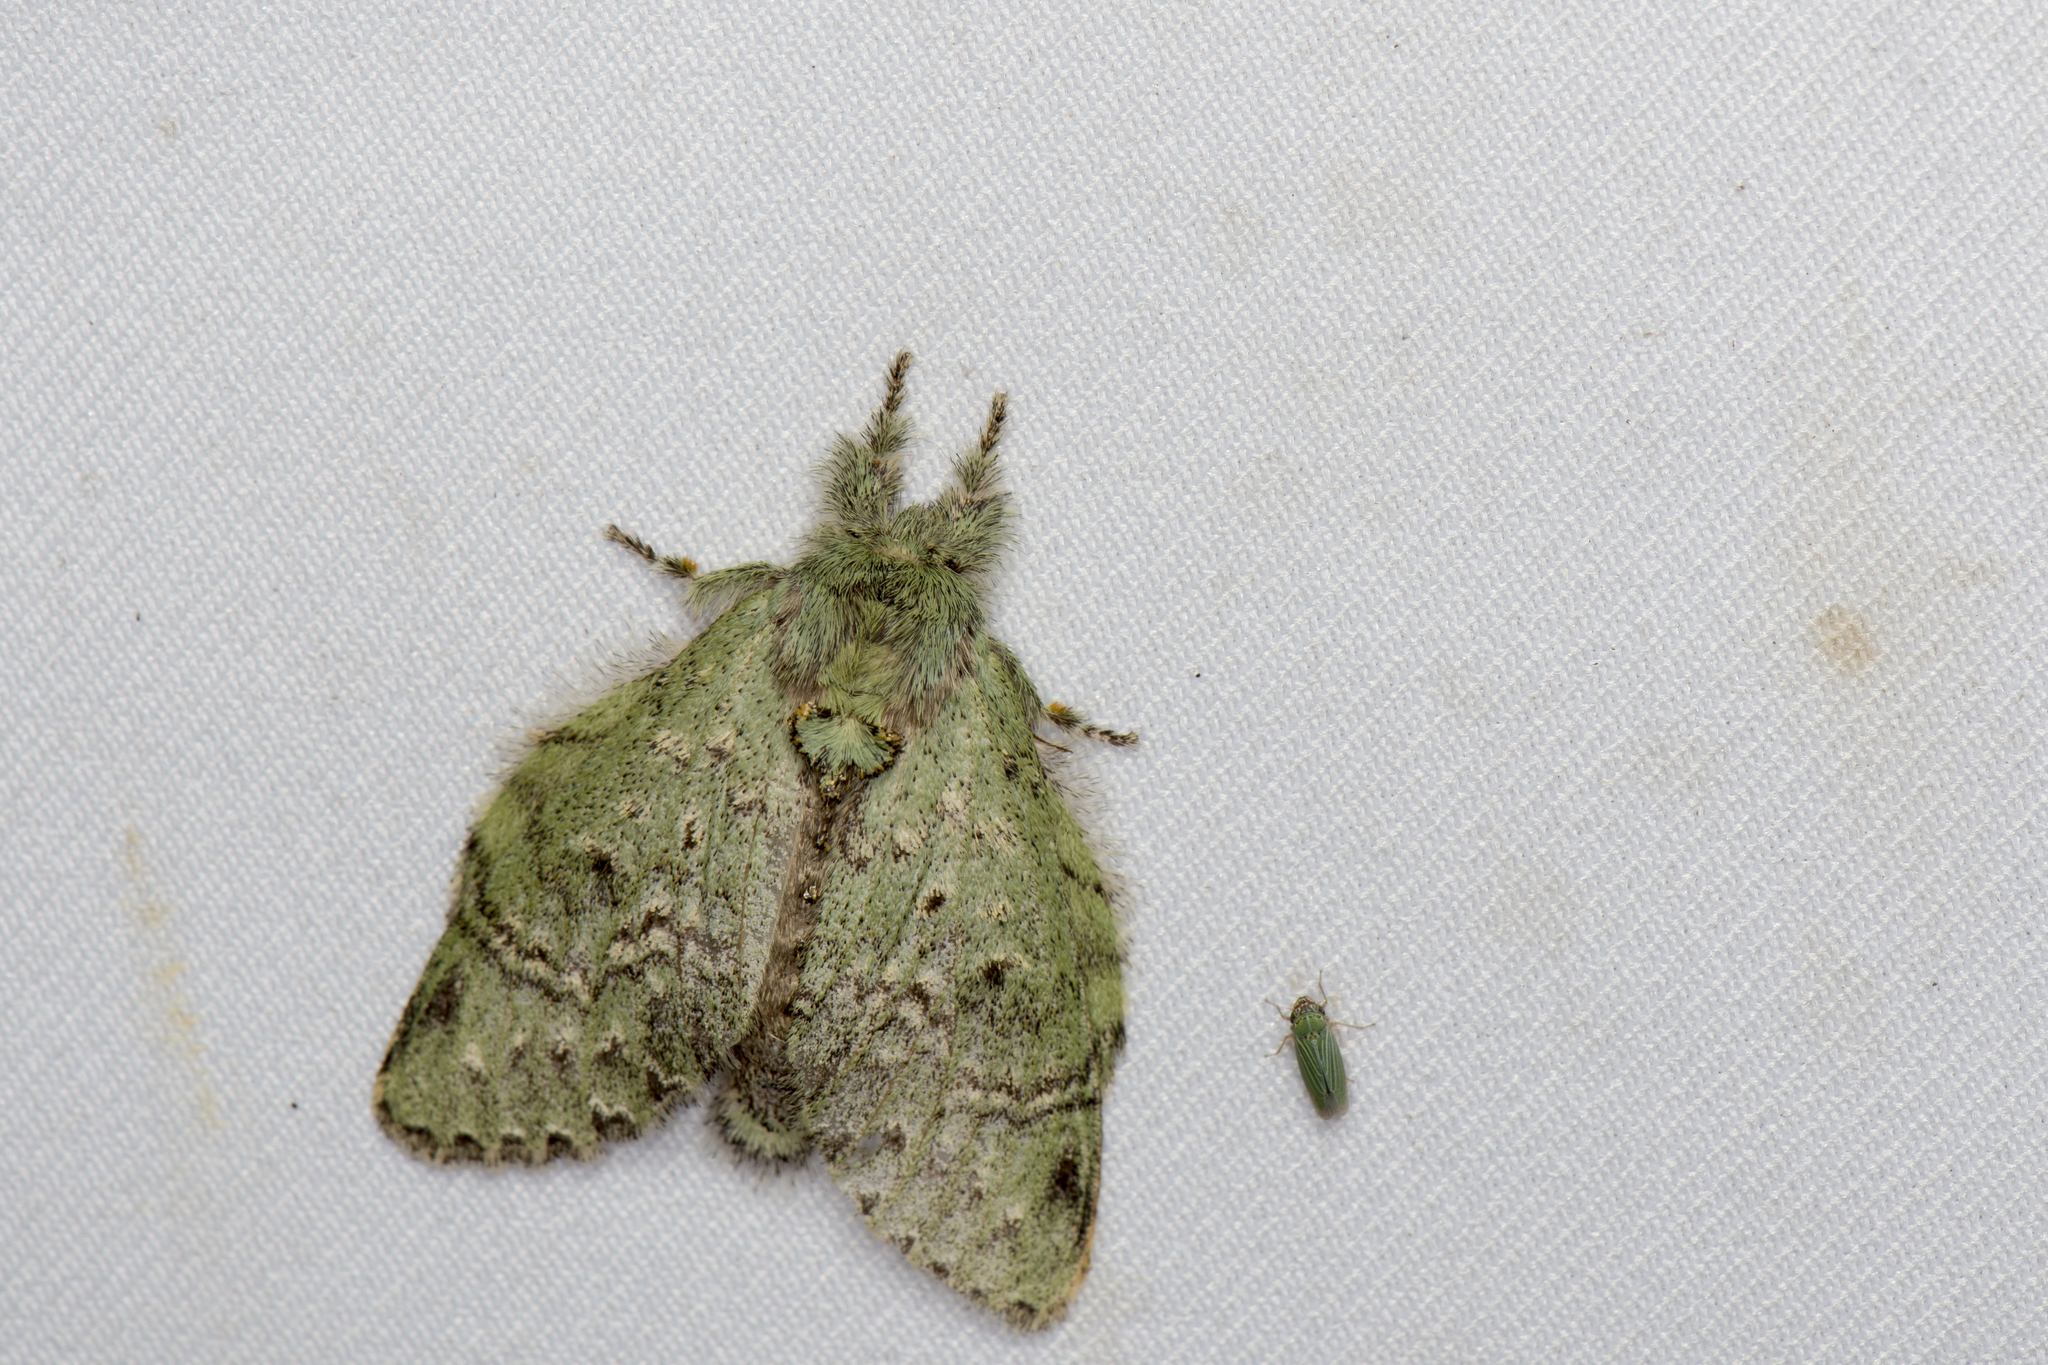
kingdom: Animalia
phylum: Arthropoda
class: Insecta
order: Lepidoptera
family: Notodontidae
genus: Stauropus
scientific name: Stauropus takamukuanus
